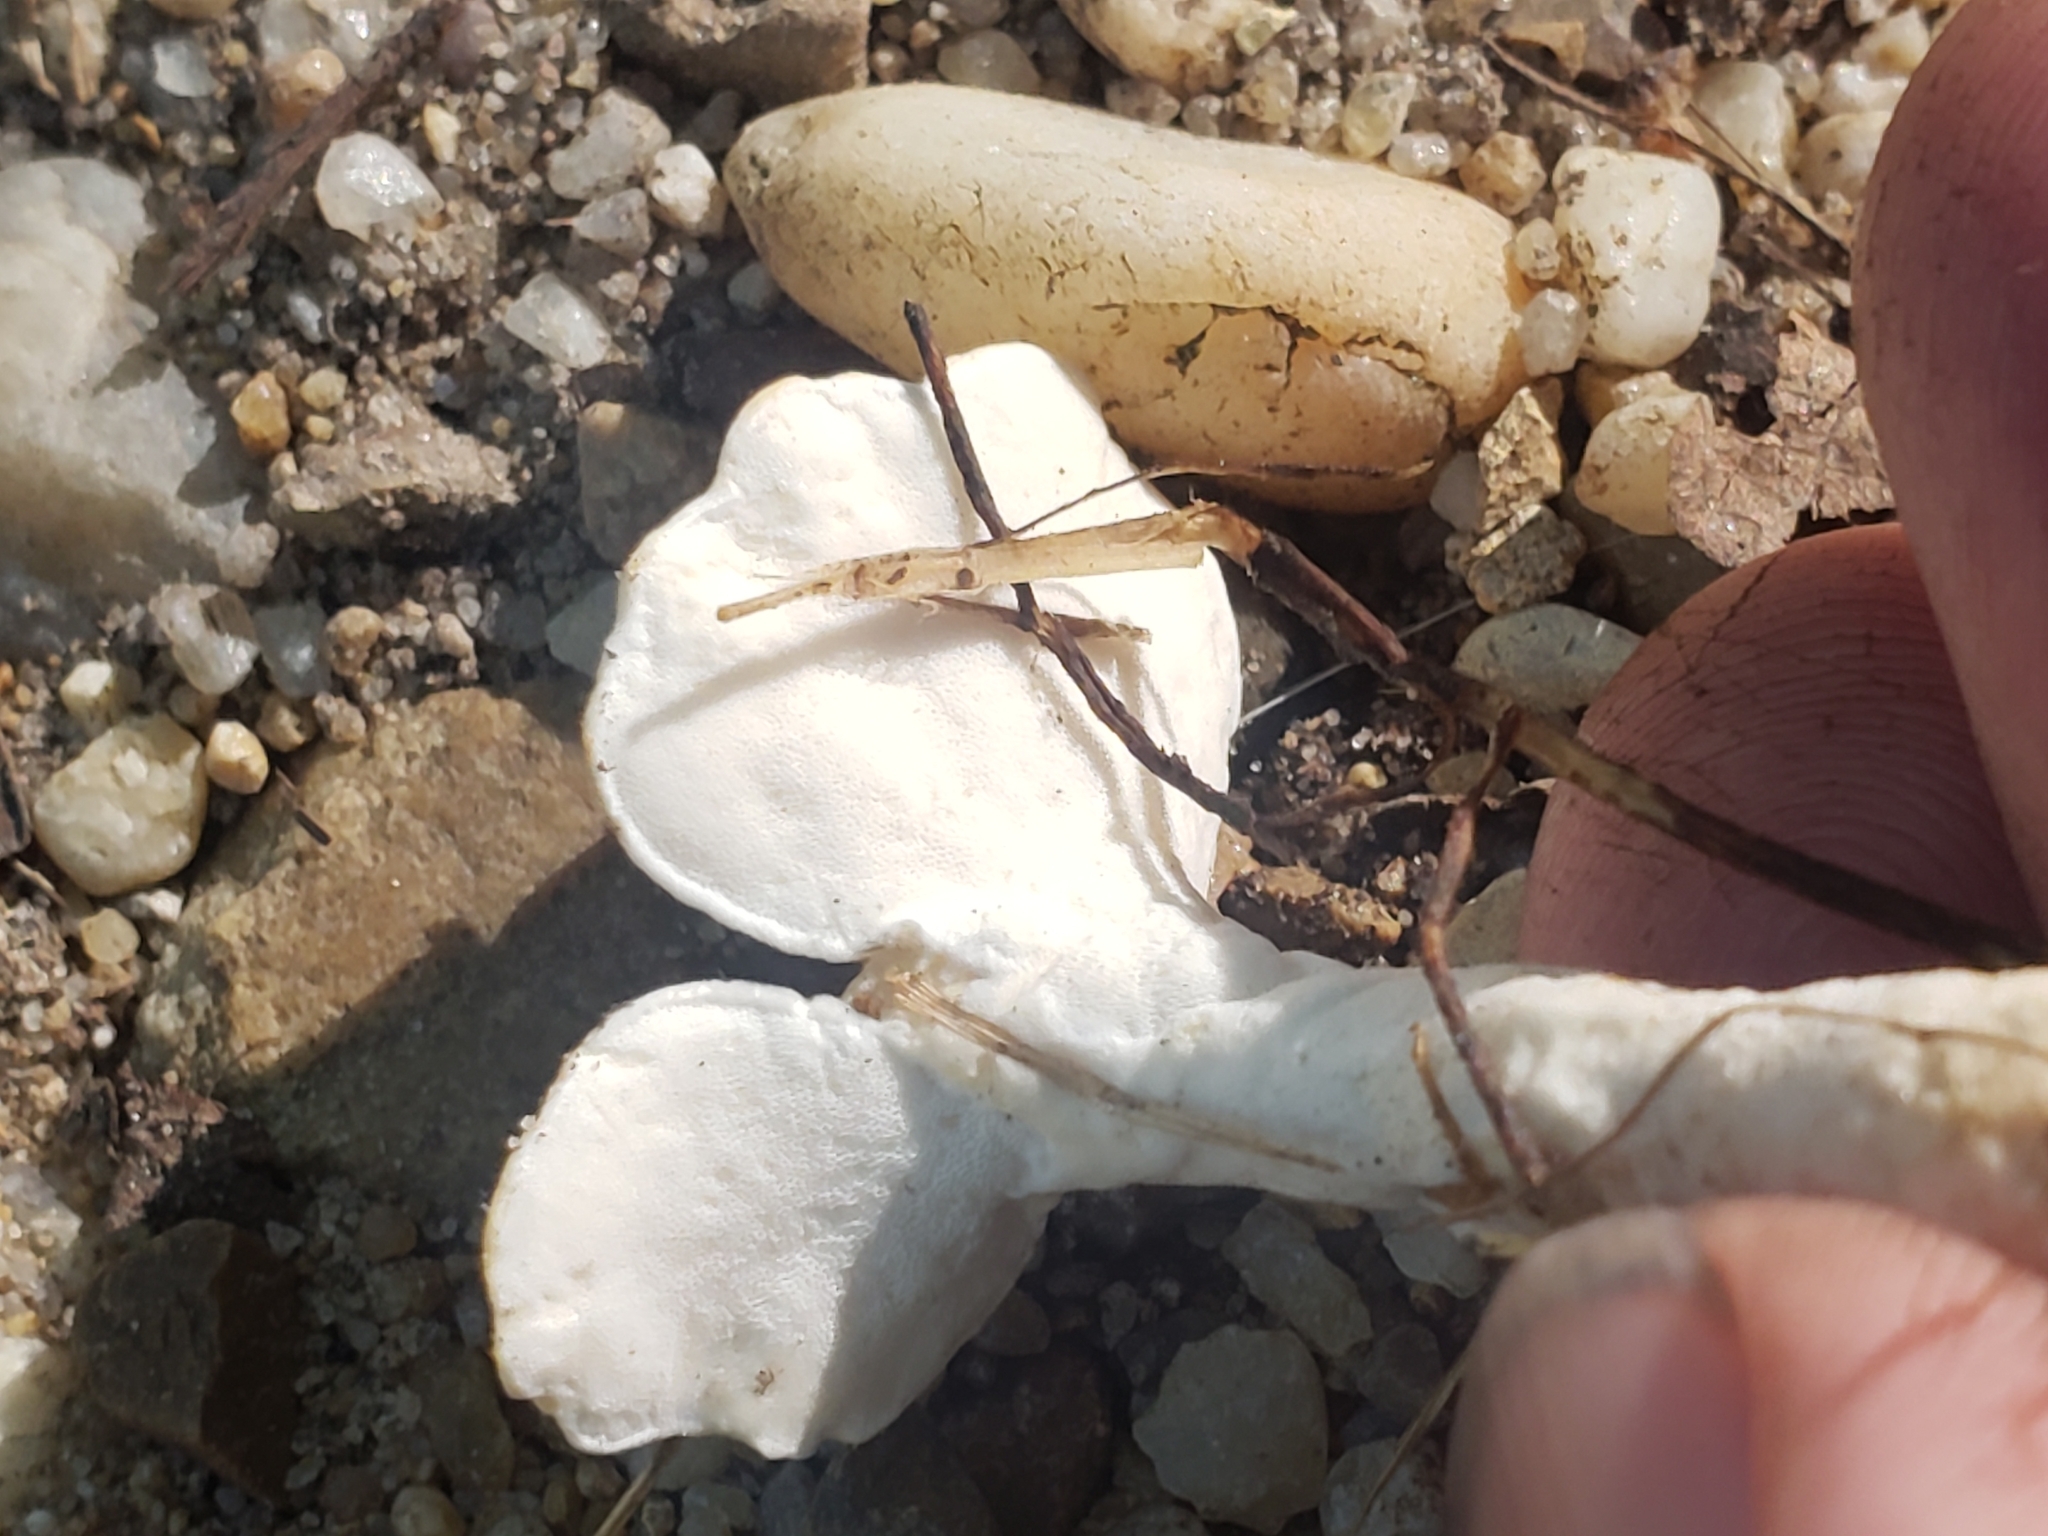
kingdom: Fungi
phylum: Basidiomycota
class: Agaricomycetes
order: Polyporales
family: Steccherinaceae
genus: Loweomyces
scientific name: Loweomyces fractipes
